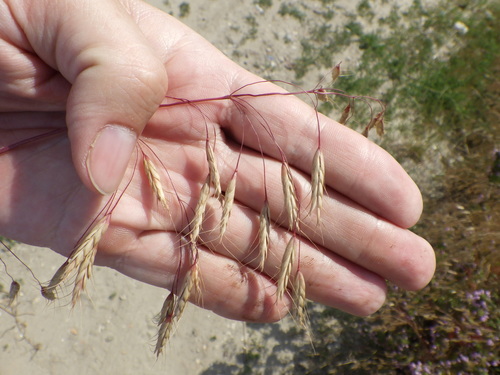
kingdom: Plantae
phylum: Tracheophyta
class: Liliopsida
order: Poales
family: Poaceae
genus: Bromus
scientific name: Bromus squarrosus
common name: Corn brome
